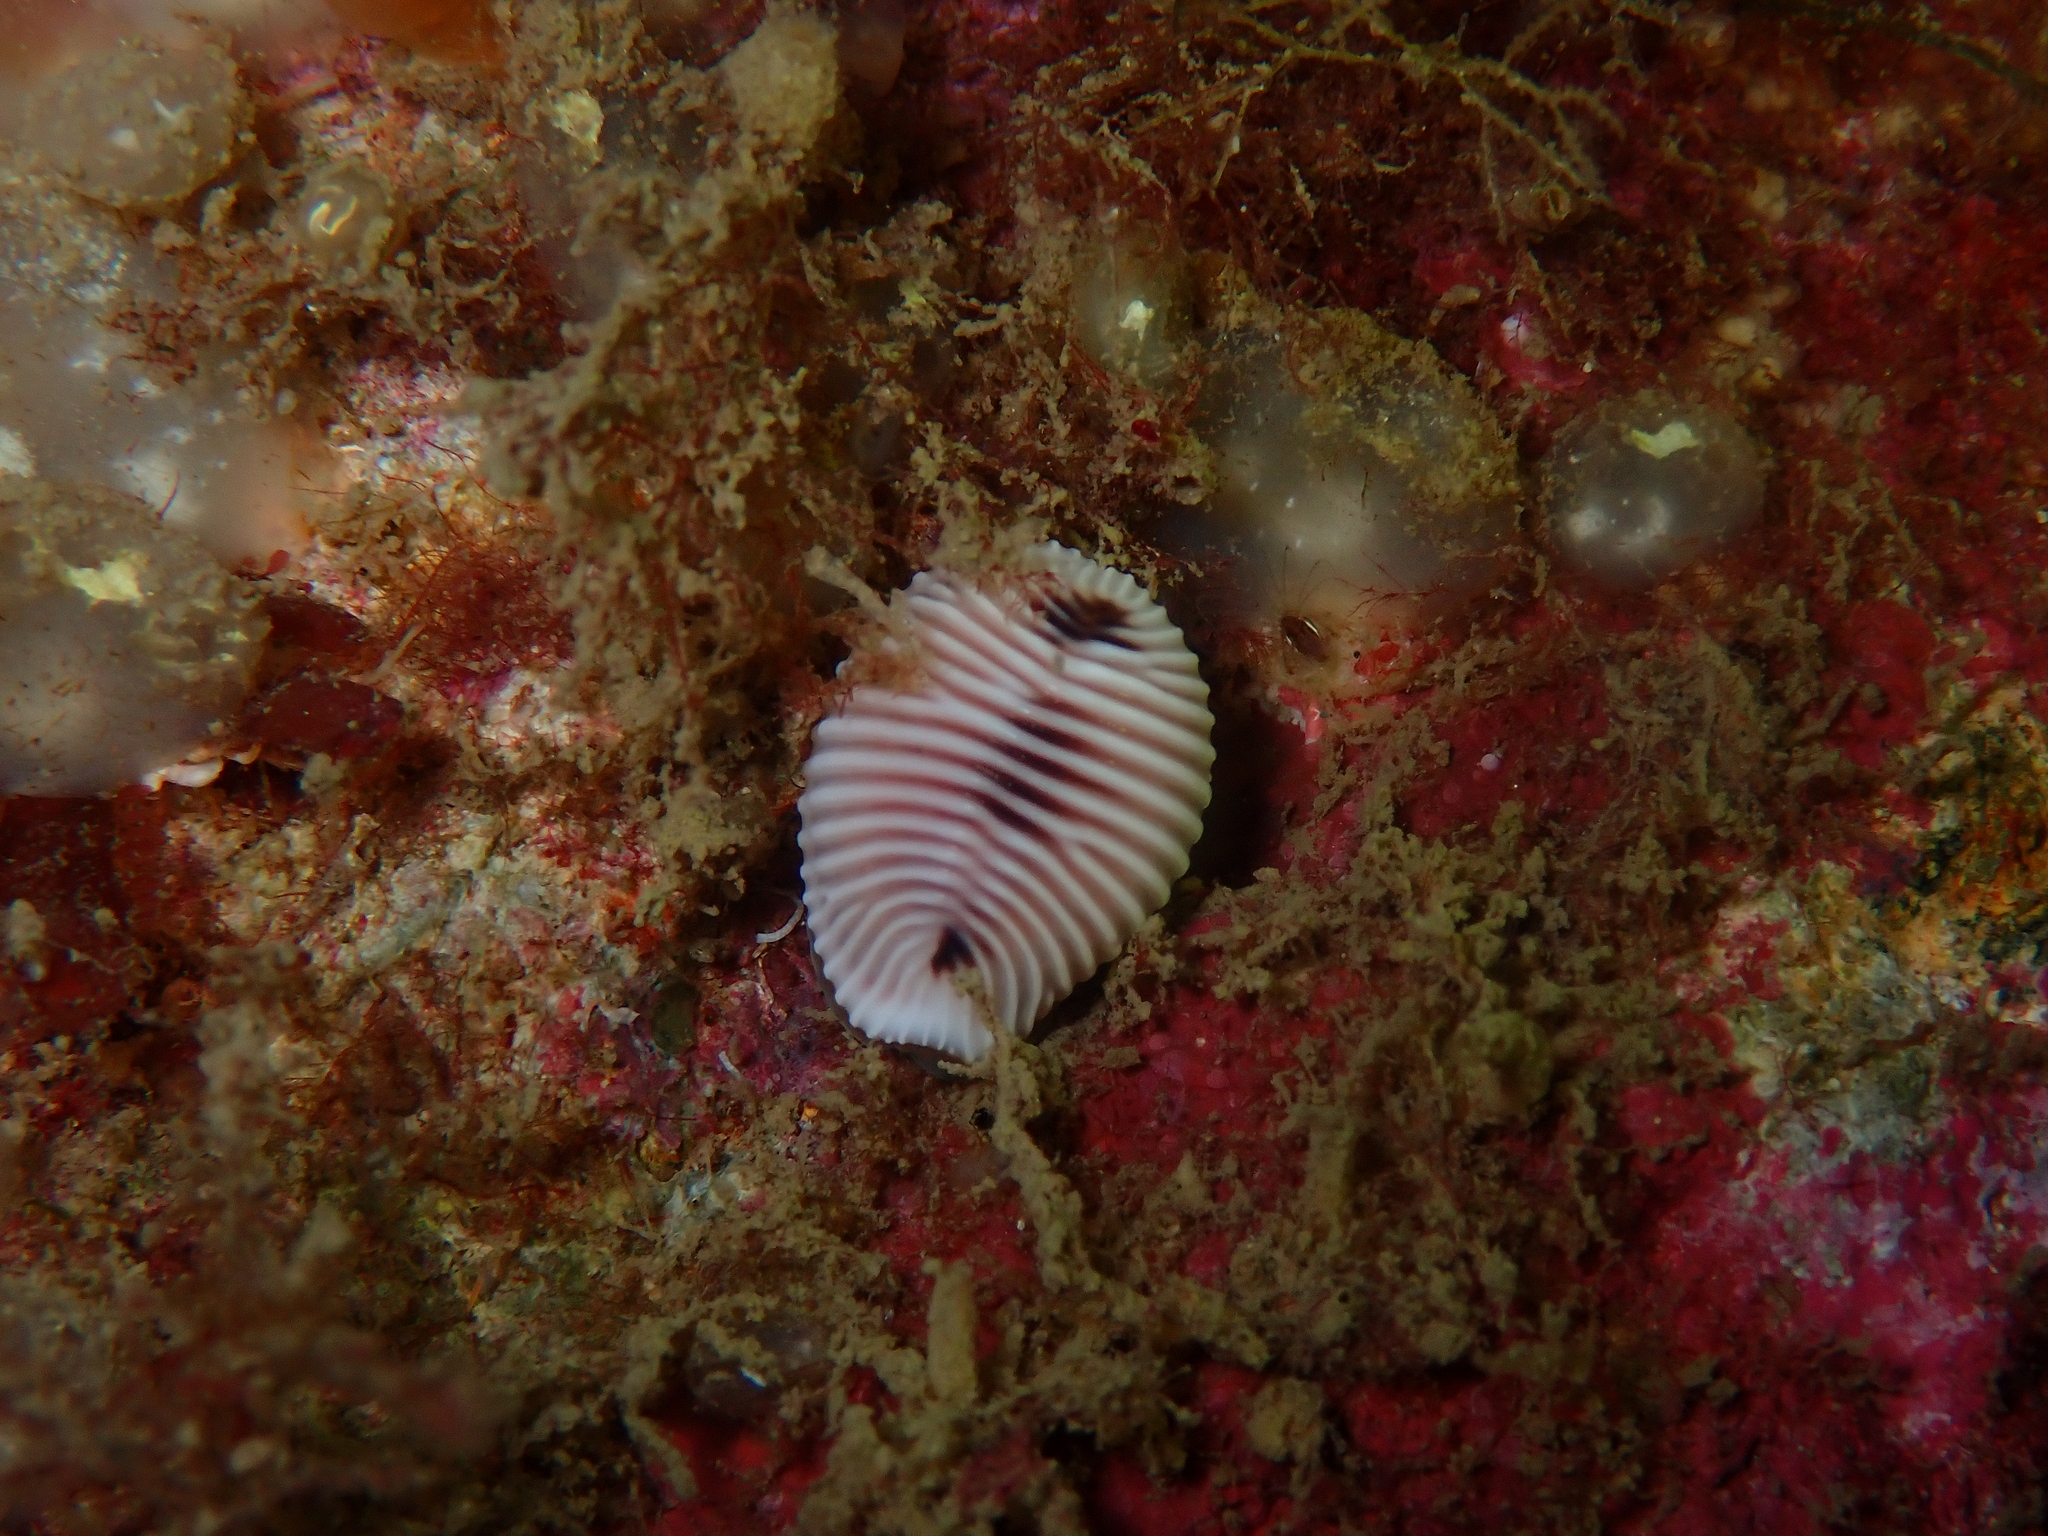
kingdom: Animalia
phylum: Mollusca
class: Gastropoda
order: Littorinimorpha
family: Triviidae
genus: Trivia
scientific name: Trivia monacha
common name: Spotted cowrie
